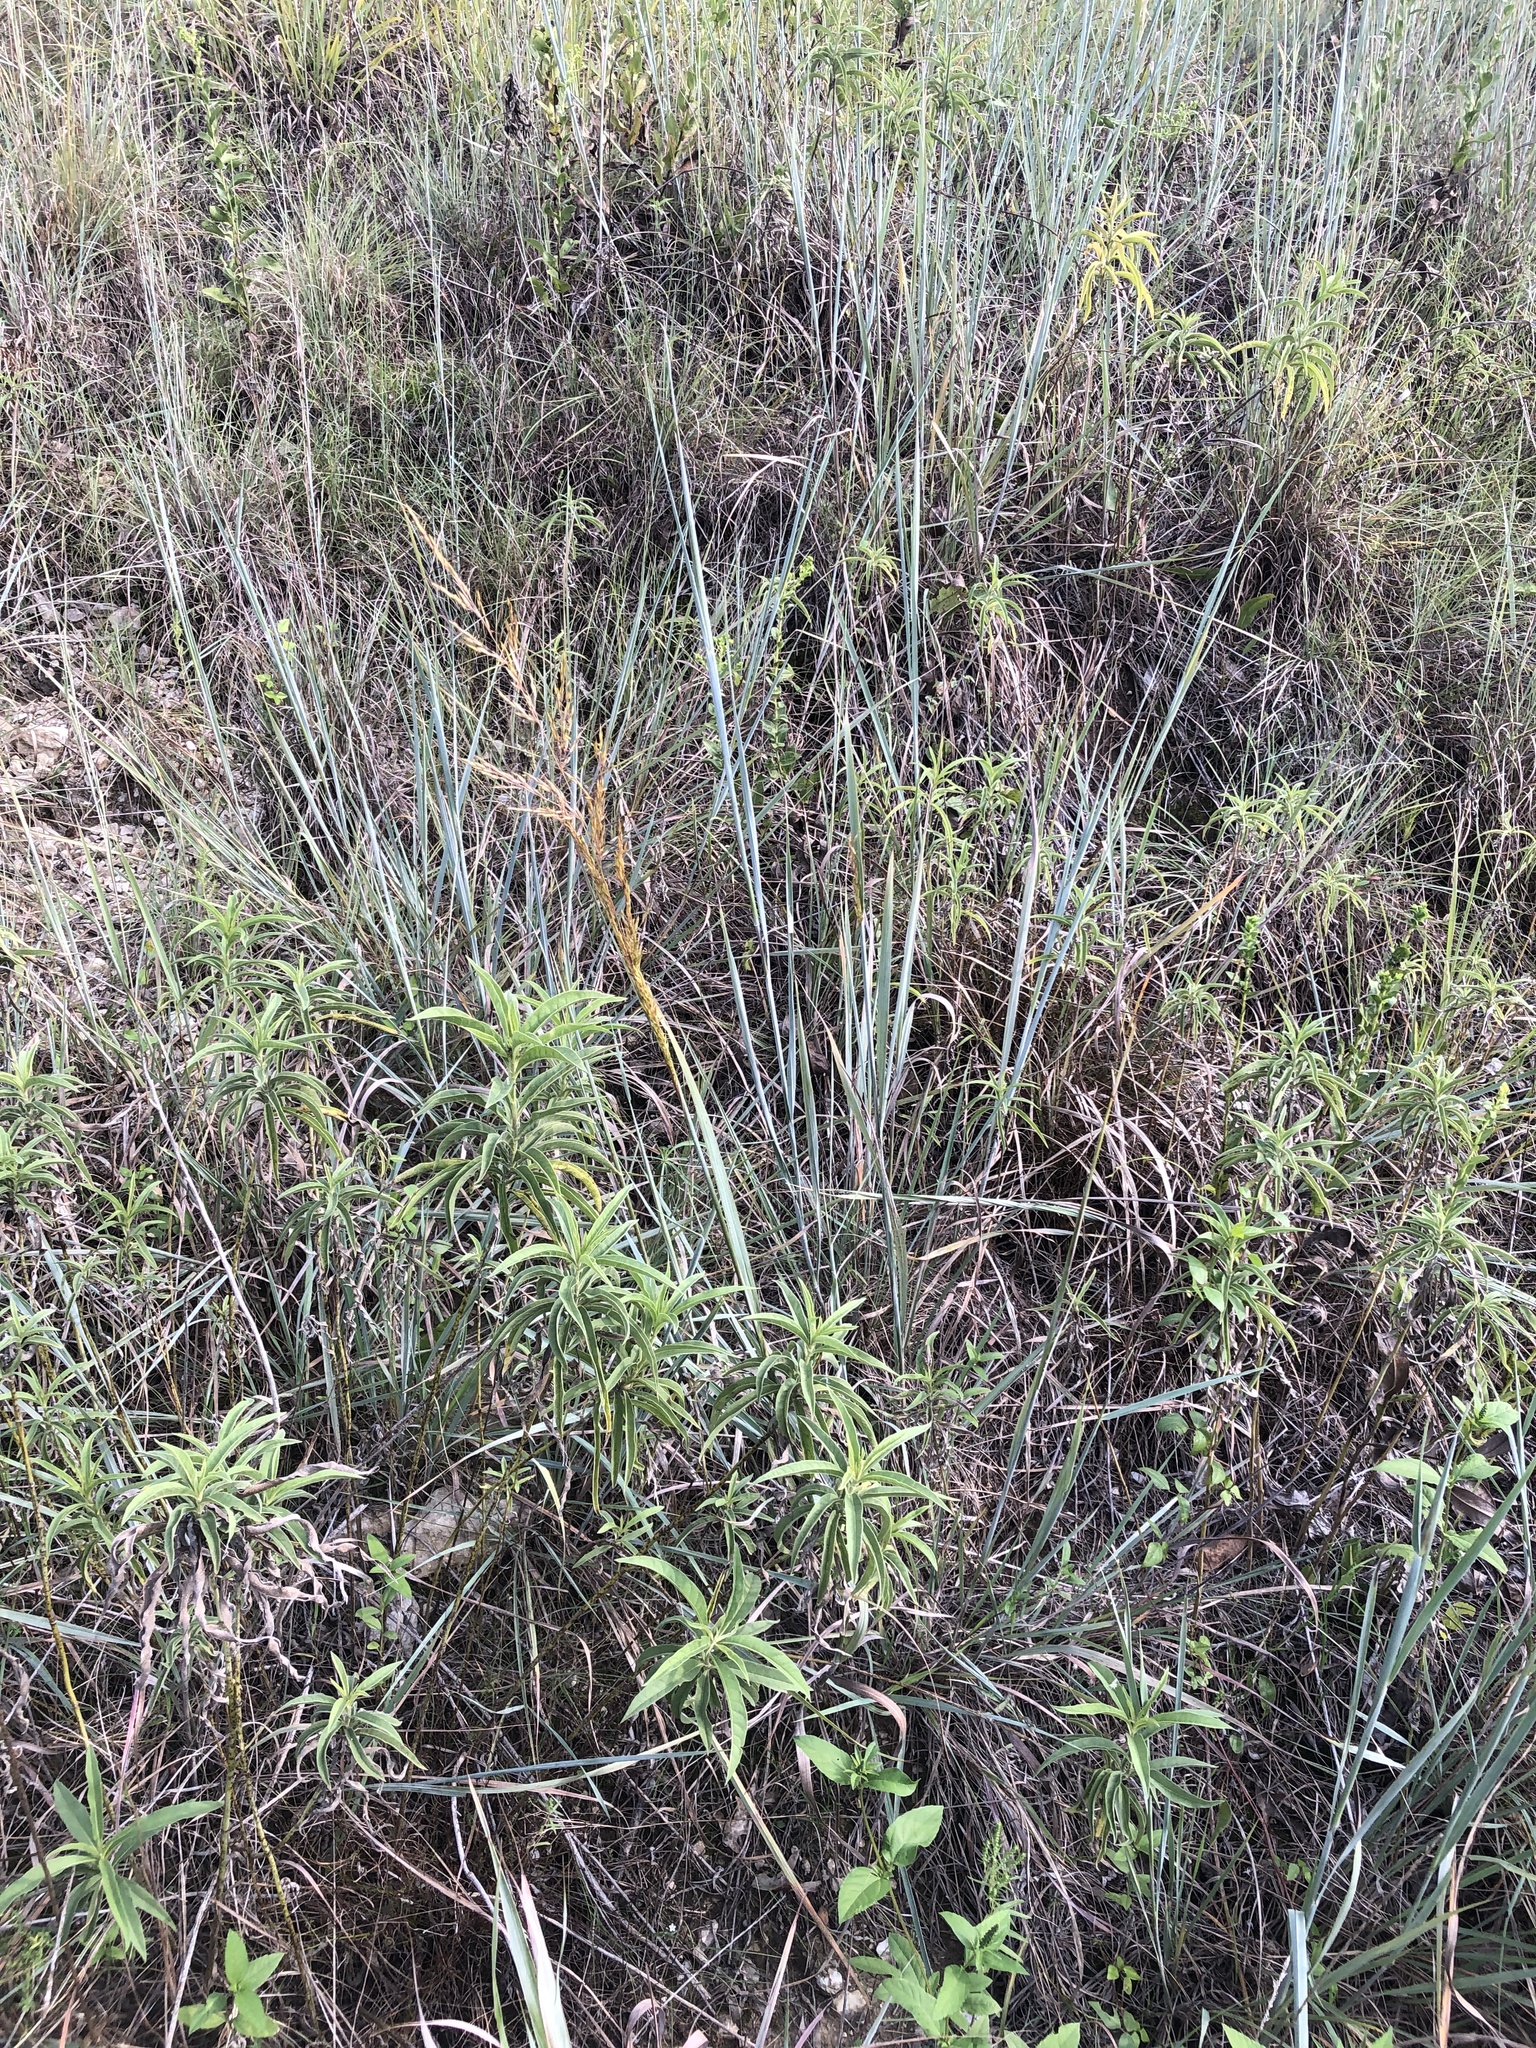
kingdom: Plantae
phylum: Tracheophyta
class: Liliopsida
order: Poales
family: Poaceae
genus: Sorghastrum
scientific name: Sorghastrum nutans
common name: Indian grass
